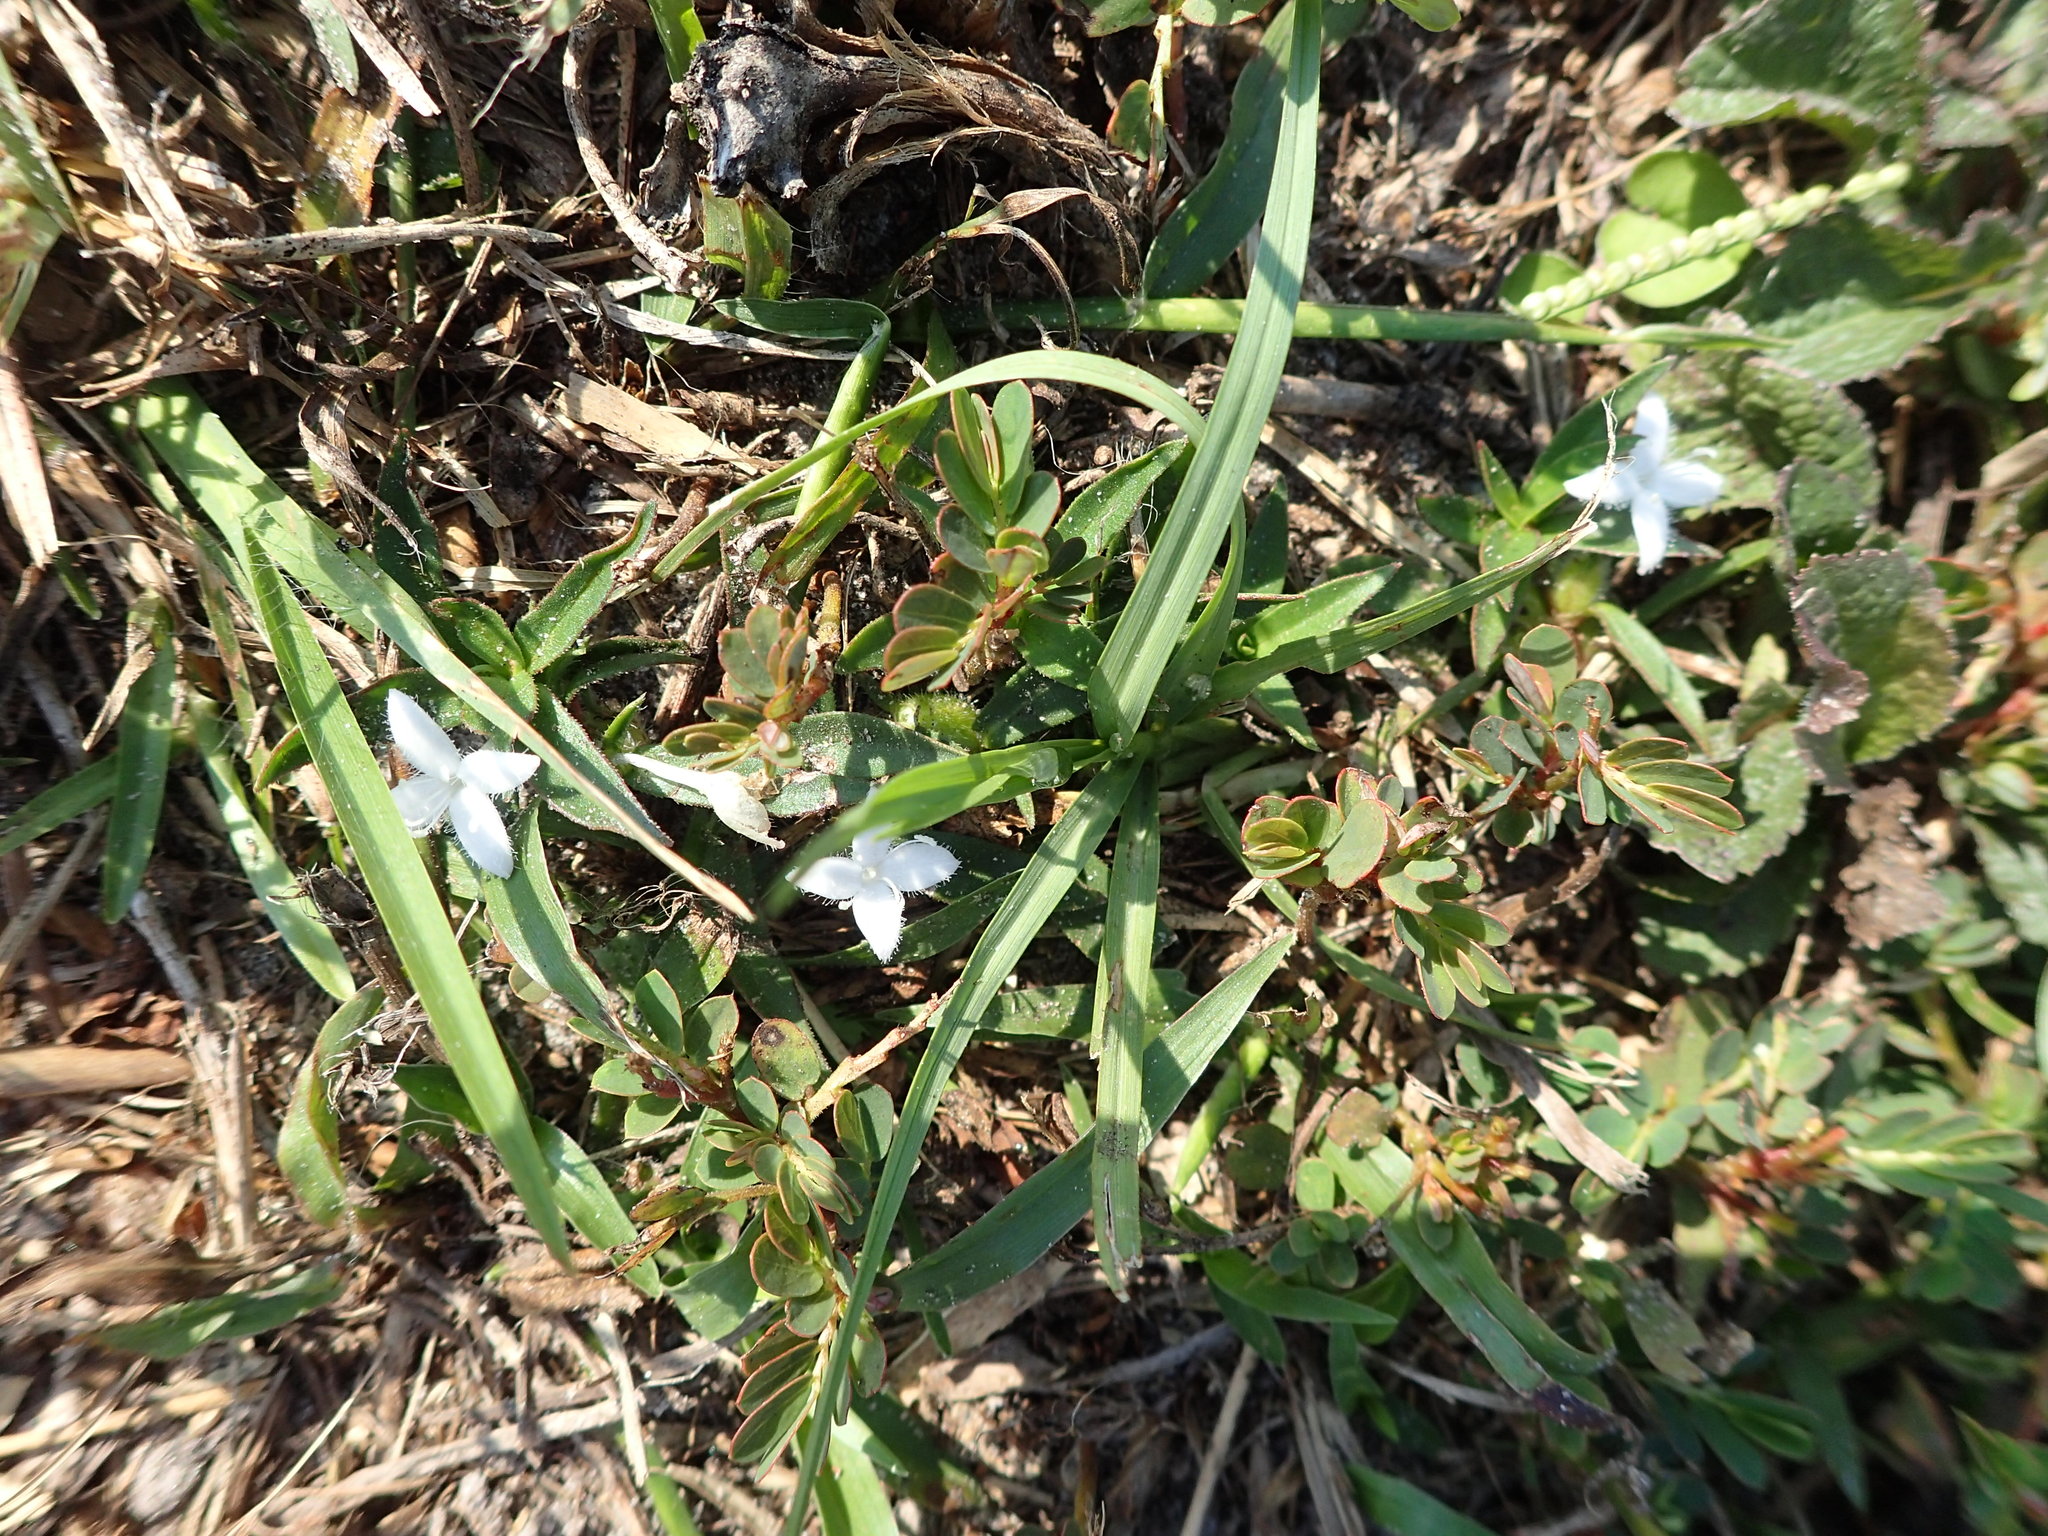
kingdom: Plantae
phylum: Tracheophyta
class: Magnoliopsida
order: Gentianales
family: Rubiaceae
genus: Diodia
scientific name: Diodia virginiana
